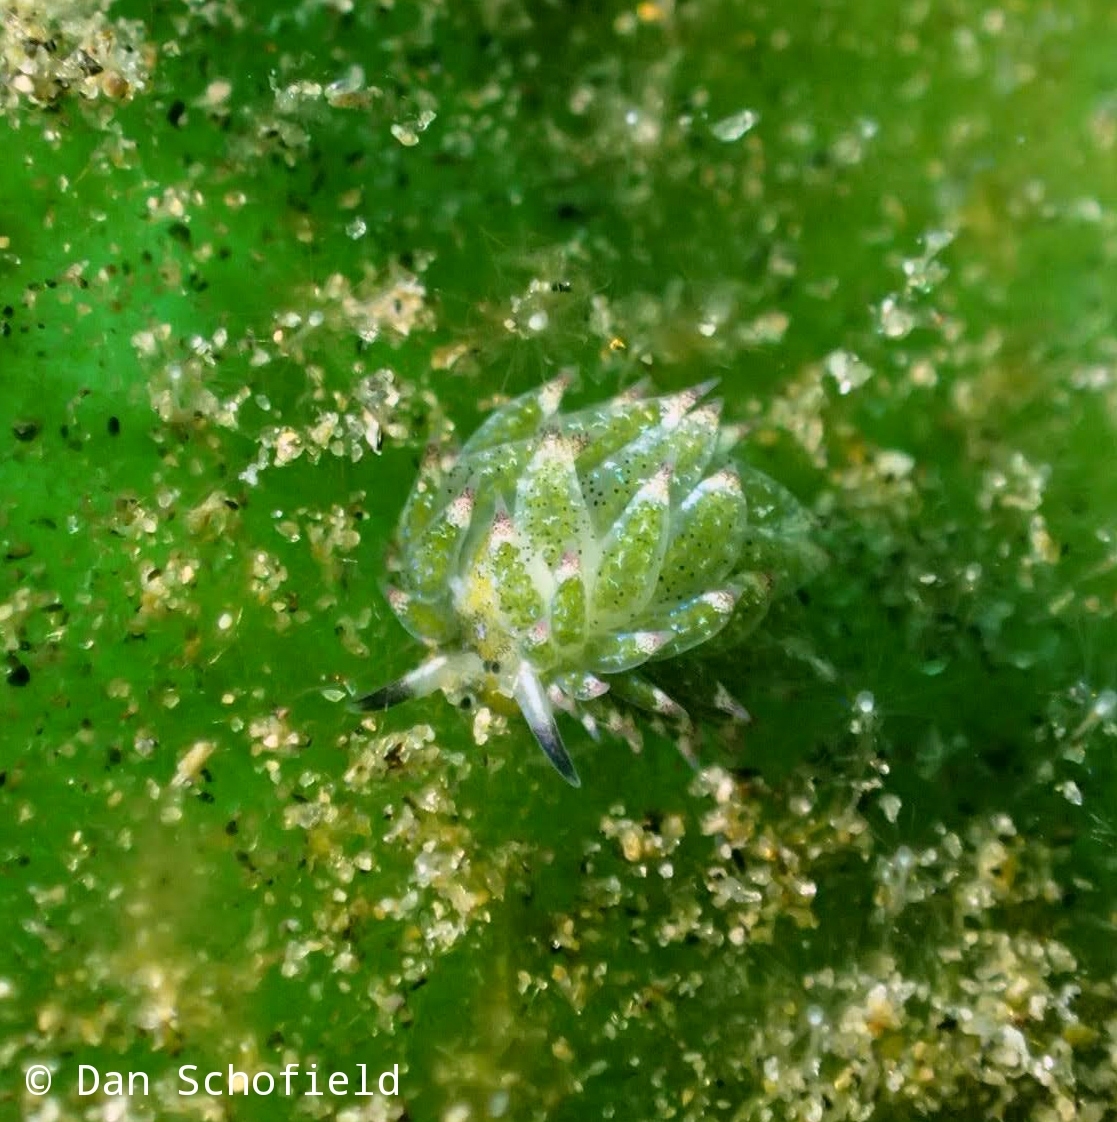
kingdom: Animalia
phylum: Mollusca
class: Gastropoda
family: Costasiellidae
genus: Costasiella
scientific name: Costasiella kuroshimae
